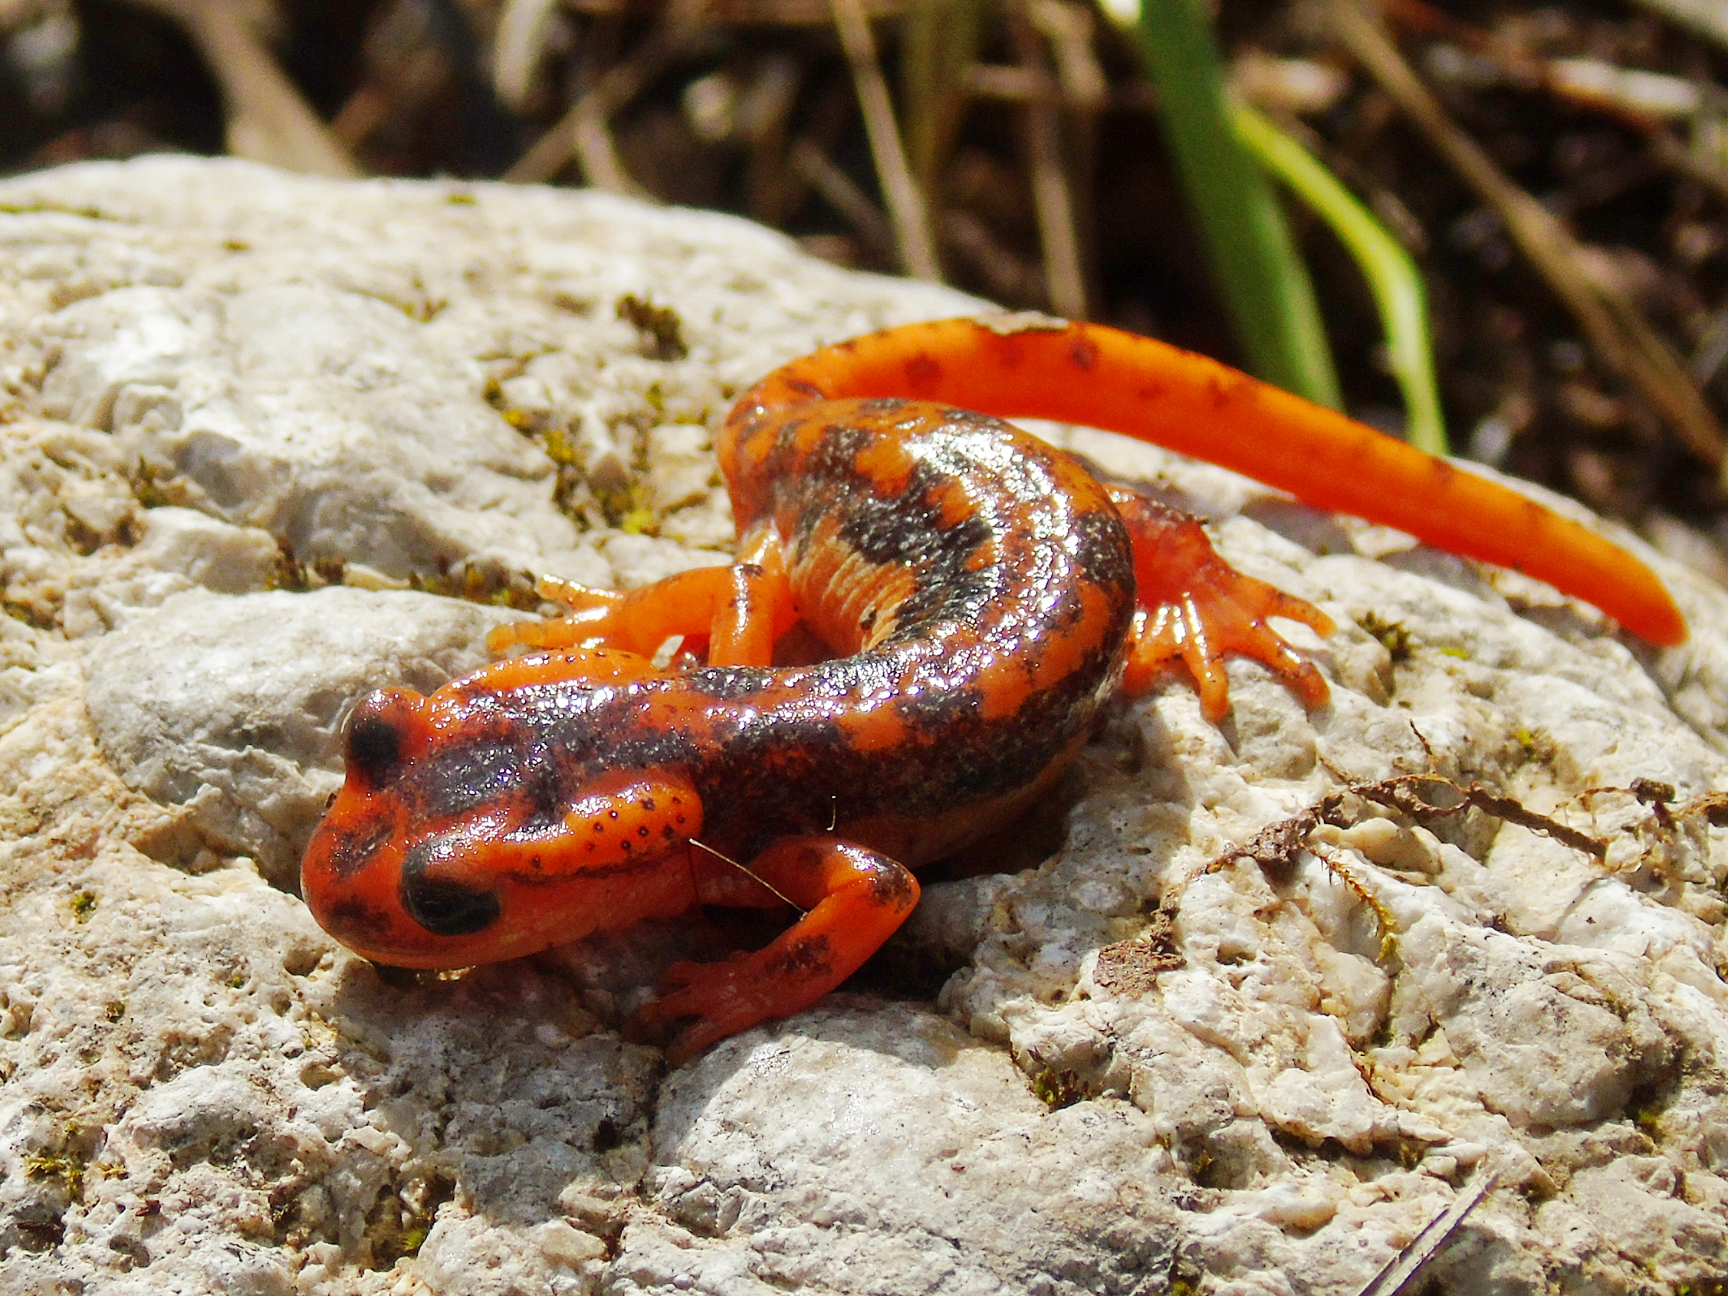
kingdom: Animalia
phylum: Chordata
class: Amphibia
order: Caudata
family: Salamandridae
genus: Lyciasalamandra
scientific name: Lyciasalamandra fazilae
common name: Fazila's salamander
